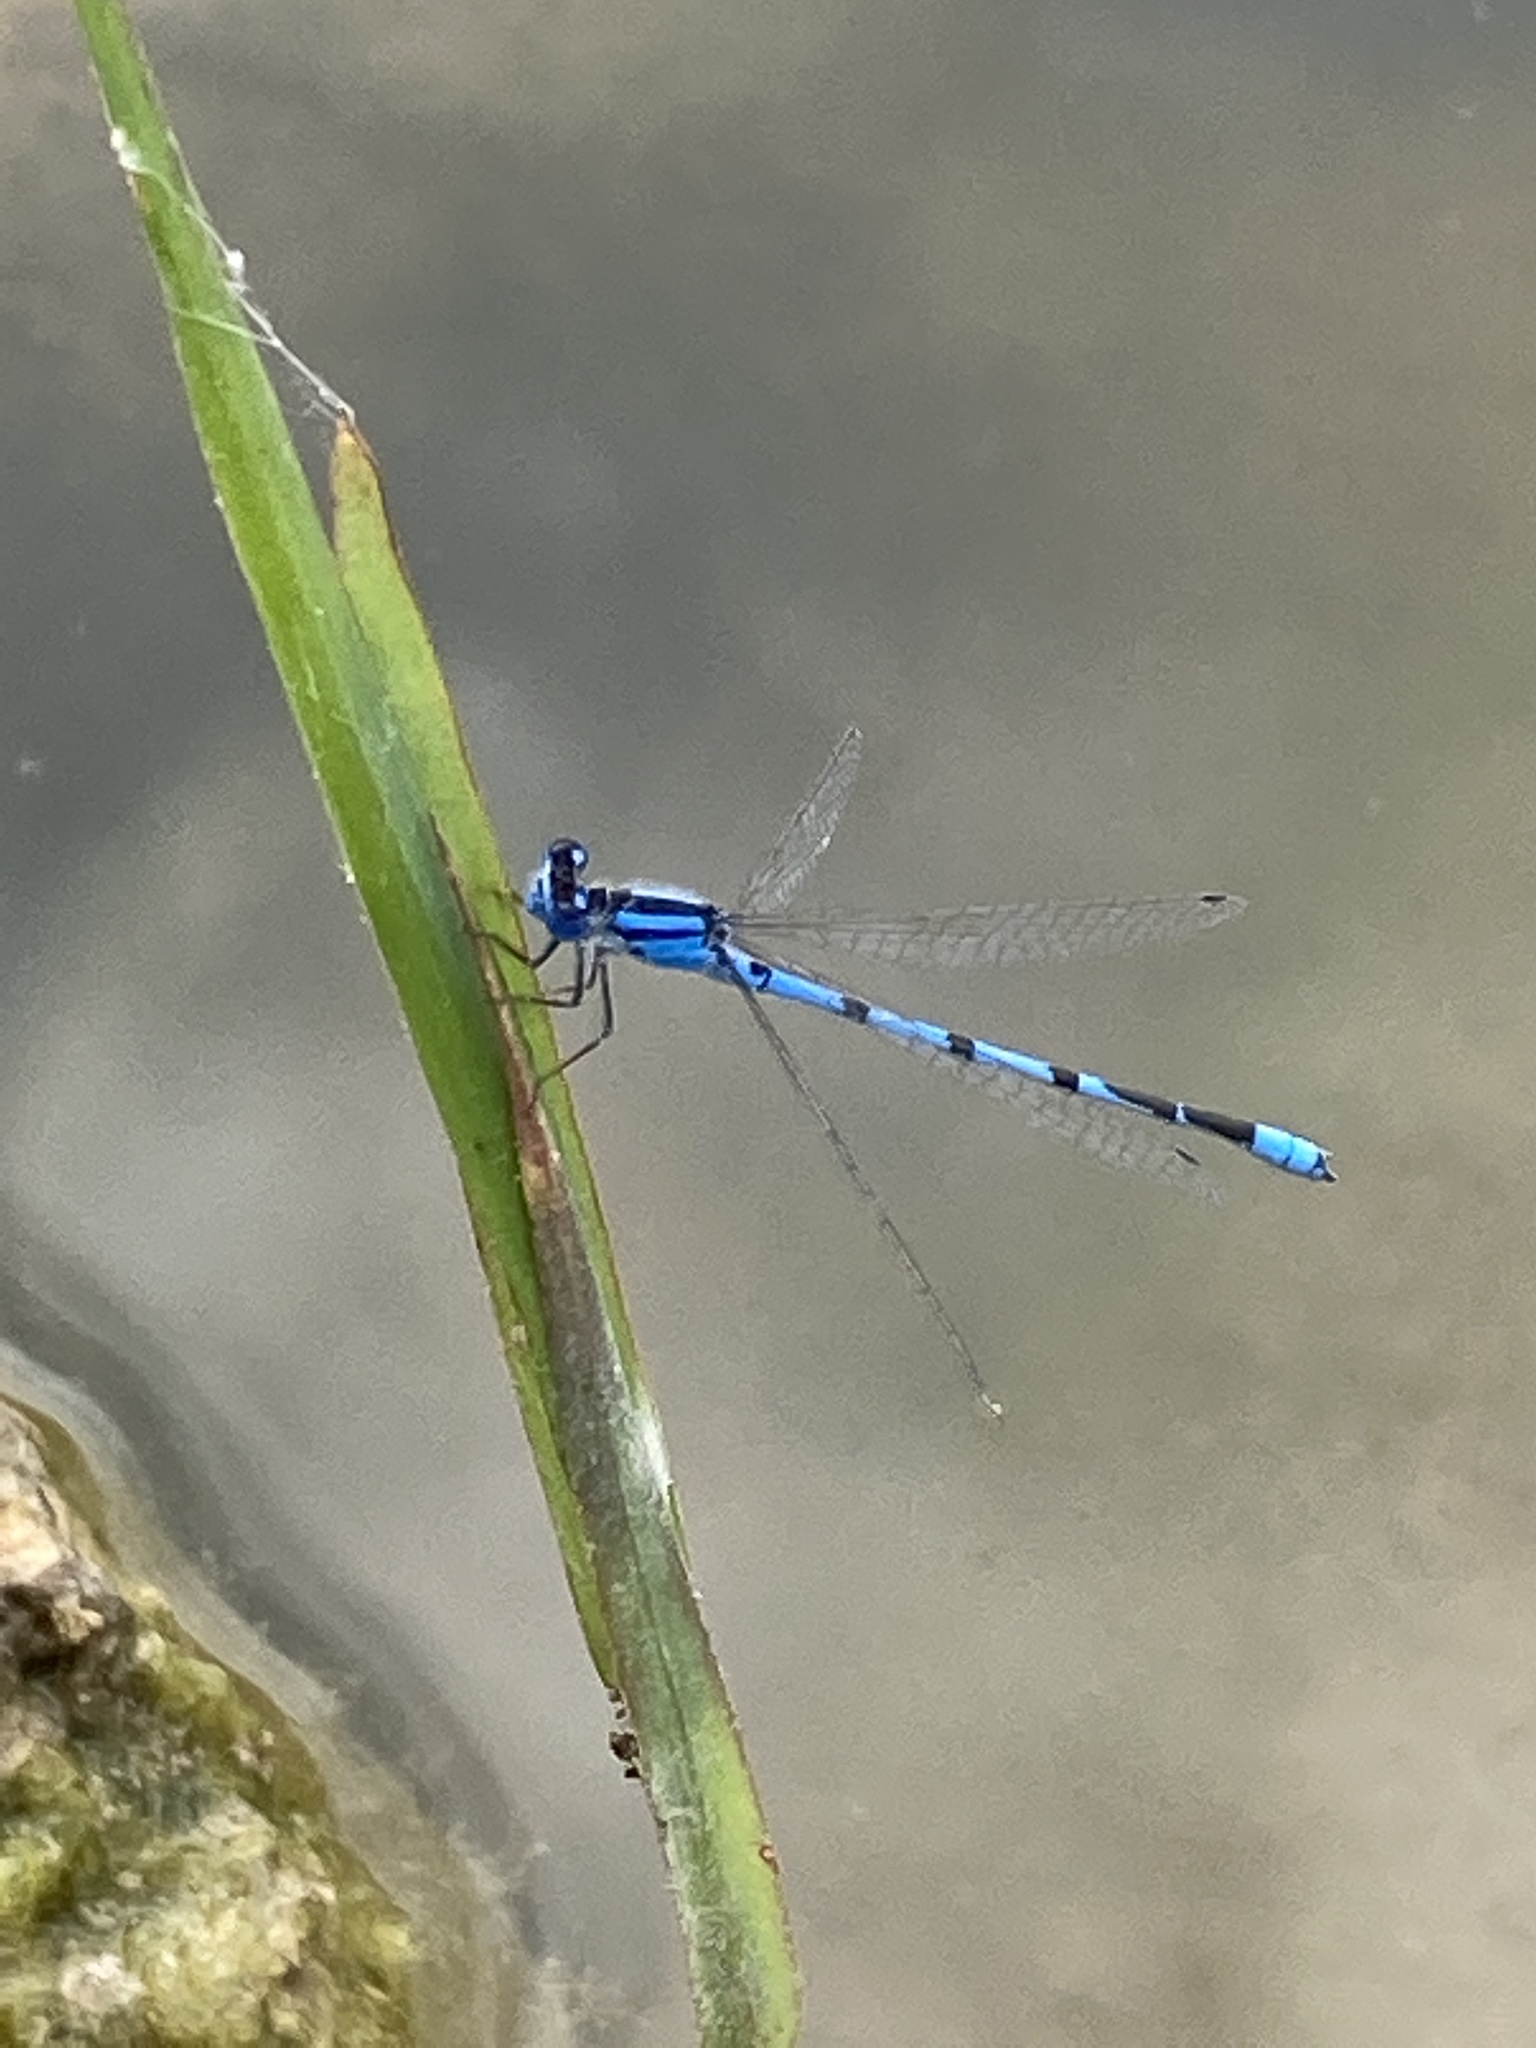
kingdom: Animalia
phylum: Arthropoda
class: Insecta
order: Odonata
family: Coenagrionidae
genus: Enallagma
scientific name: Enallagma civile
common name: Damselfly
